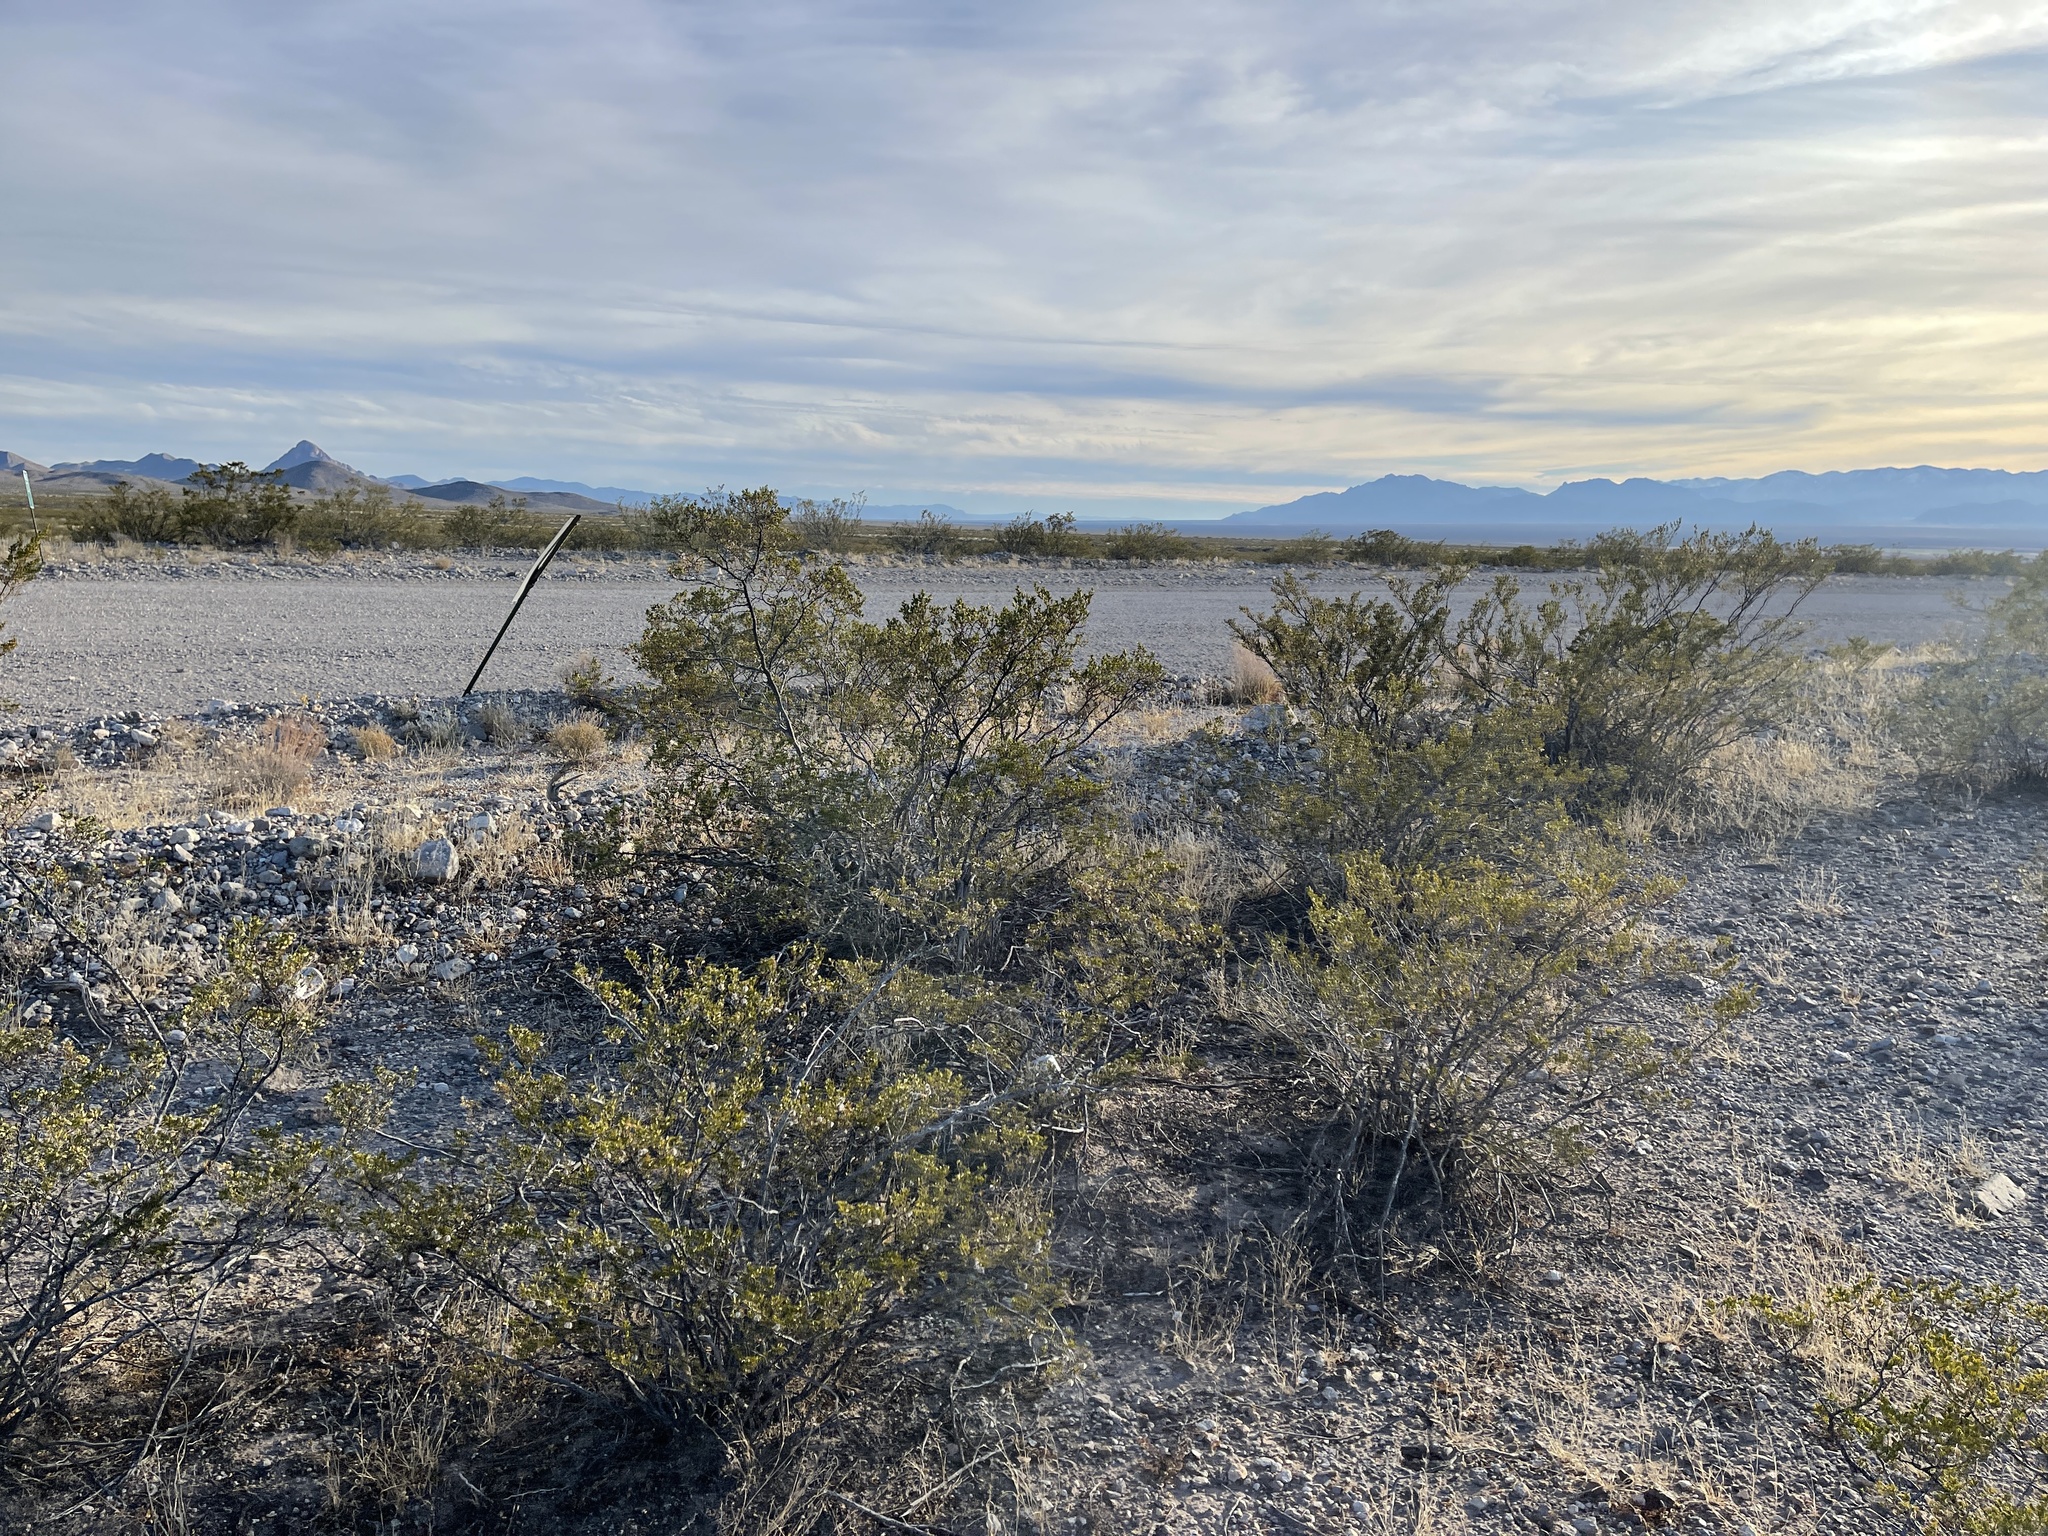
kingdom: Plantae
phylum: Tracheophyta
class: Magnoliopsida
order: Zygophyllales
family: Zygophyllaceae
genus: Larrea
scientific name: Larrea tridentata
